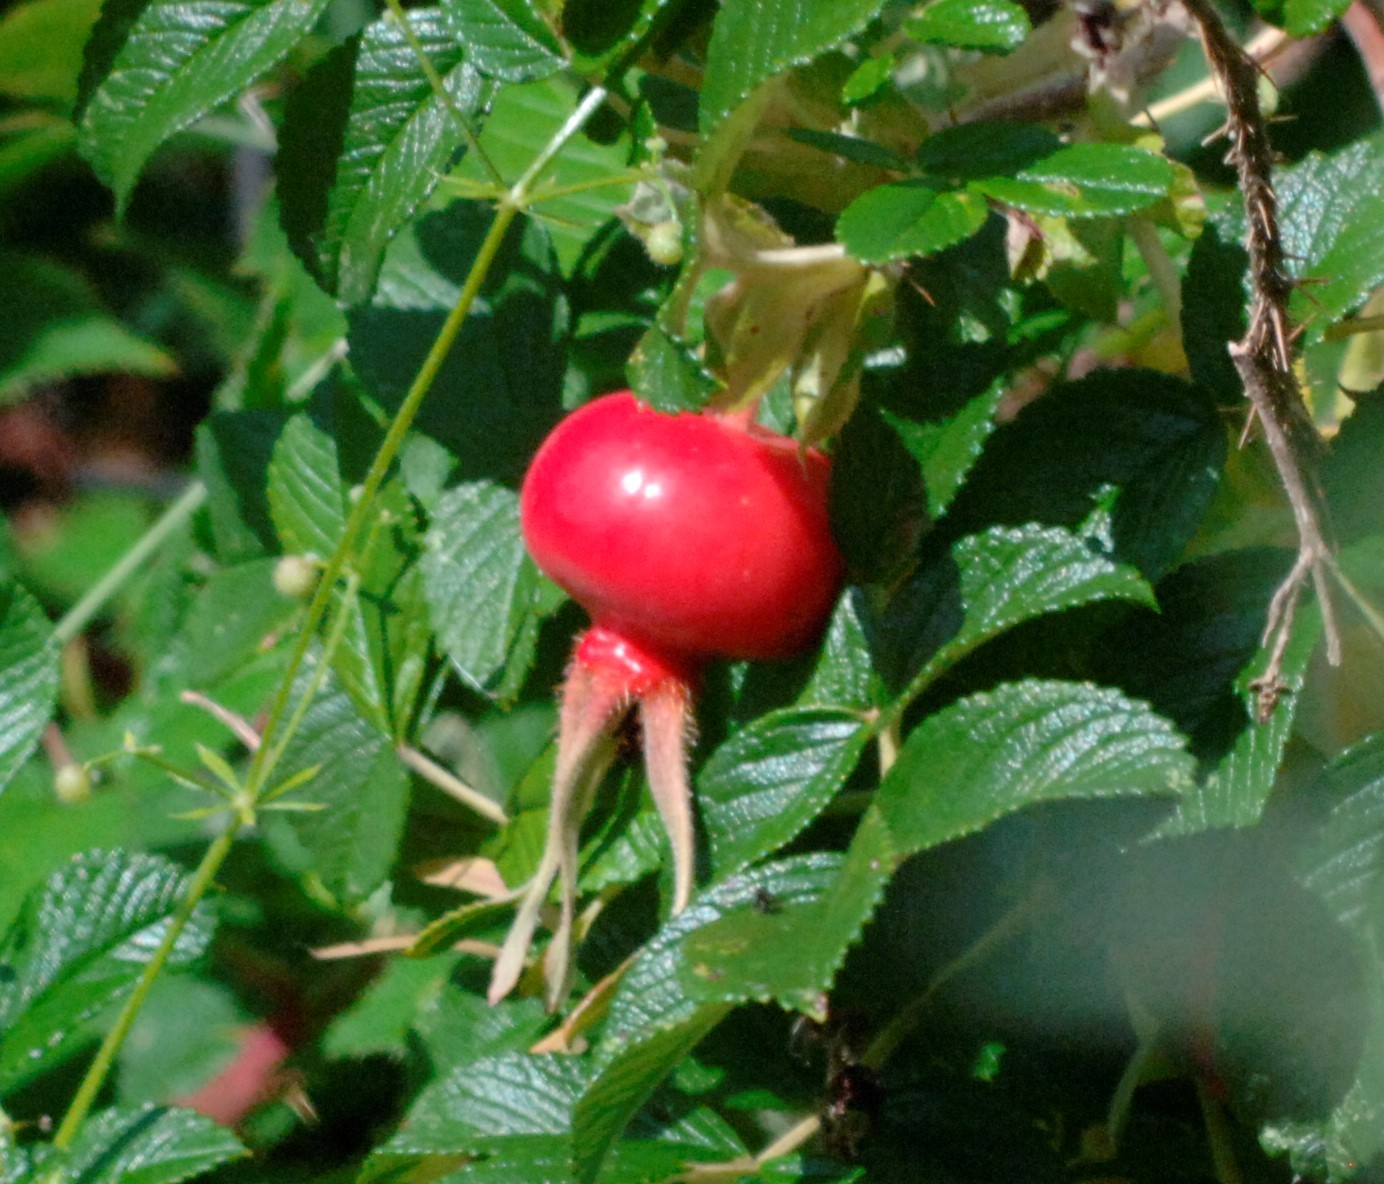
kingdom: Plantae
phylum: Tracheophyta
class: Magnoliopsida
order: Rosales
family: Rosaceae
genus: Rosa
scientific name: Rosa rugosa
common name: Japanese rose
